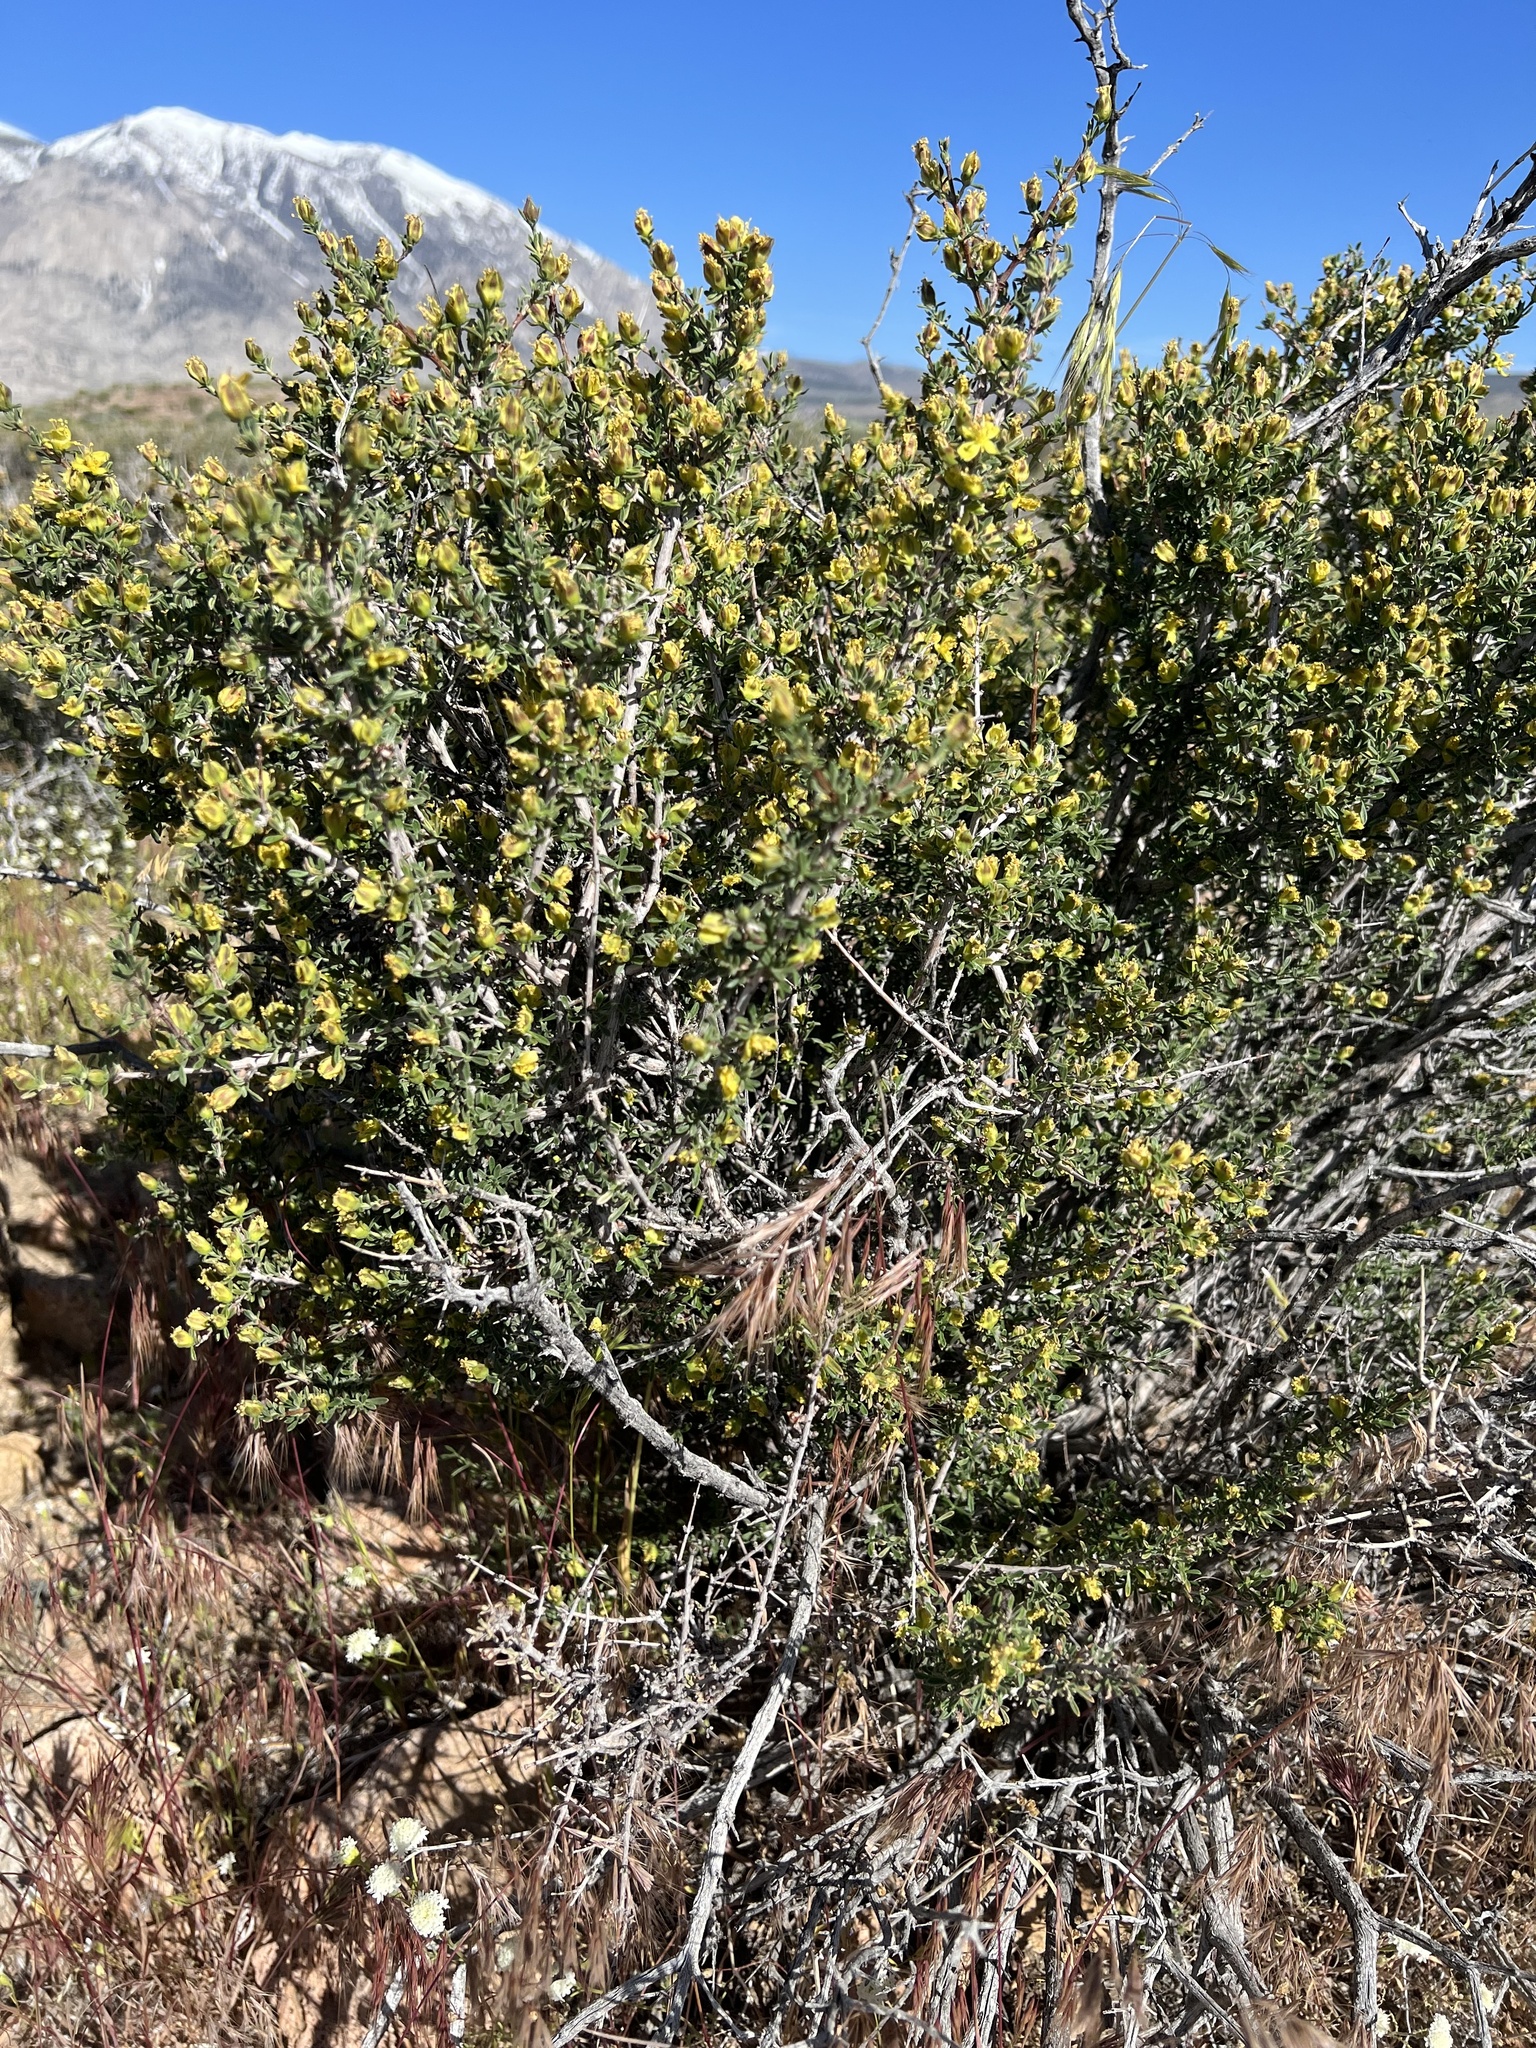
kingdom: Plantae
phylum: Tracheophyta
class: Magnoliopsida
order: Rosales
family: Rosaceae
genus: Coleogyne
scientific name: Coleogyne ramosissima
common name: Blackbrush
